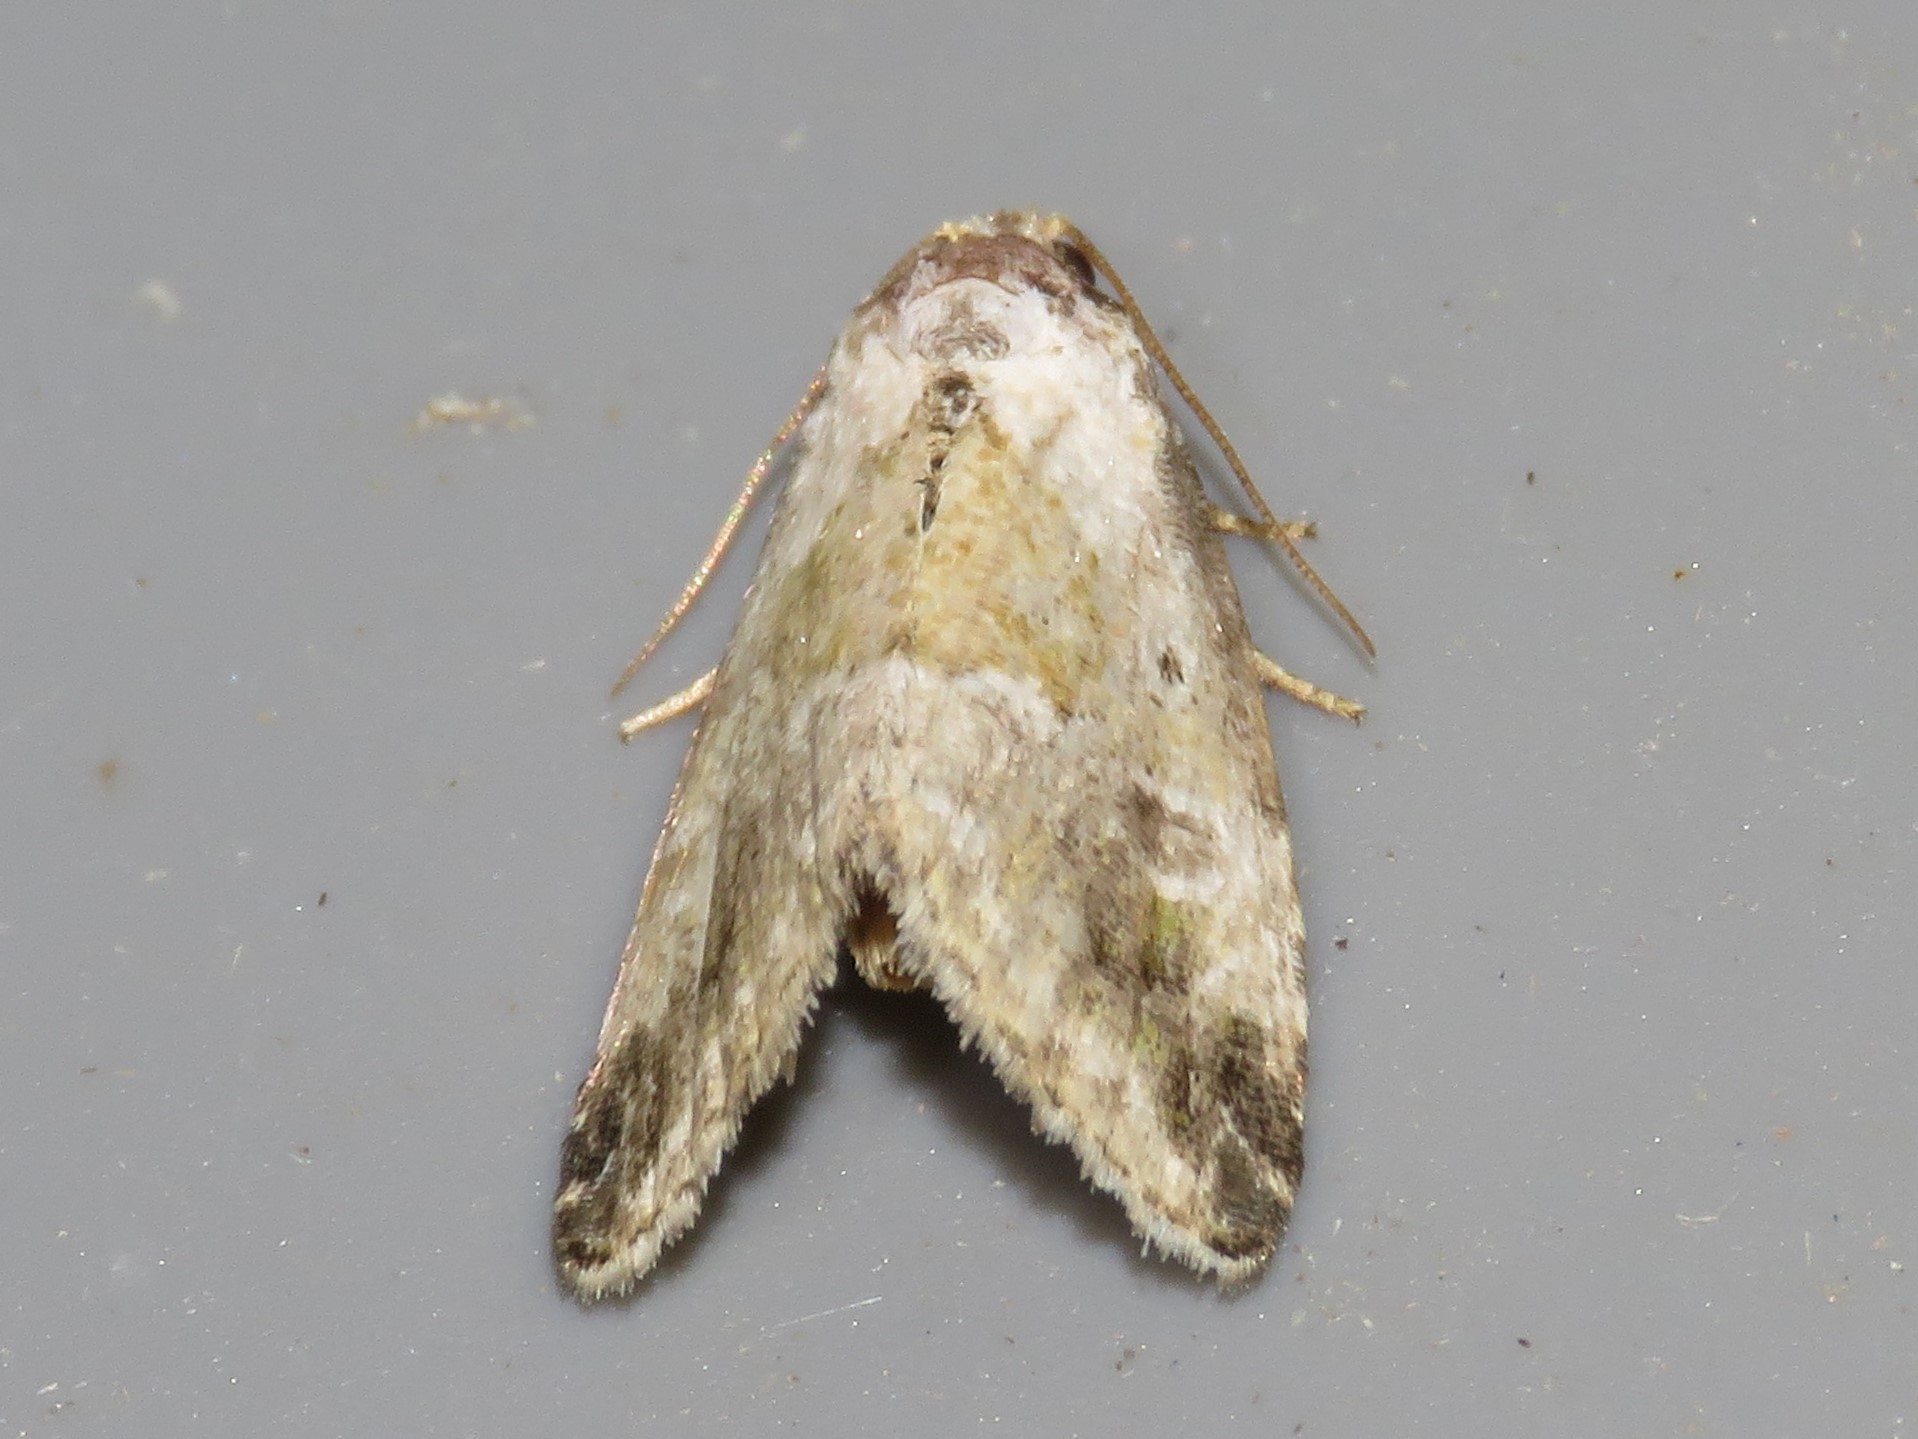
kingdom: Animalia
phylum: Arthropoda
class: Insecta
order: Lepidoptera
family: Noctuidae
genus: Maliattha
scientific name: Maliattha synochitis
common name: Black-dotted glyph
